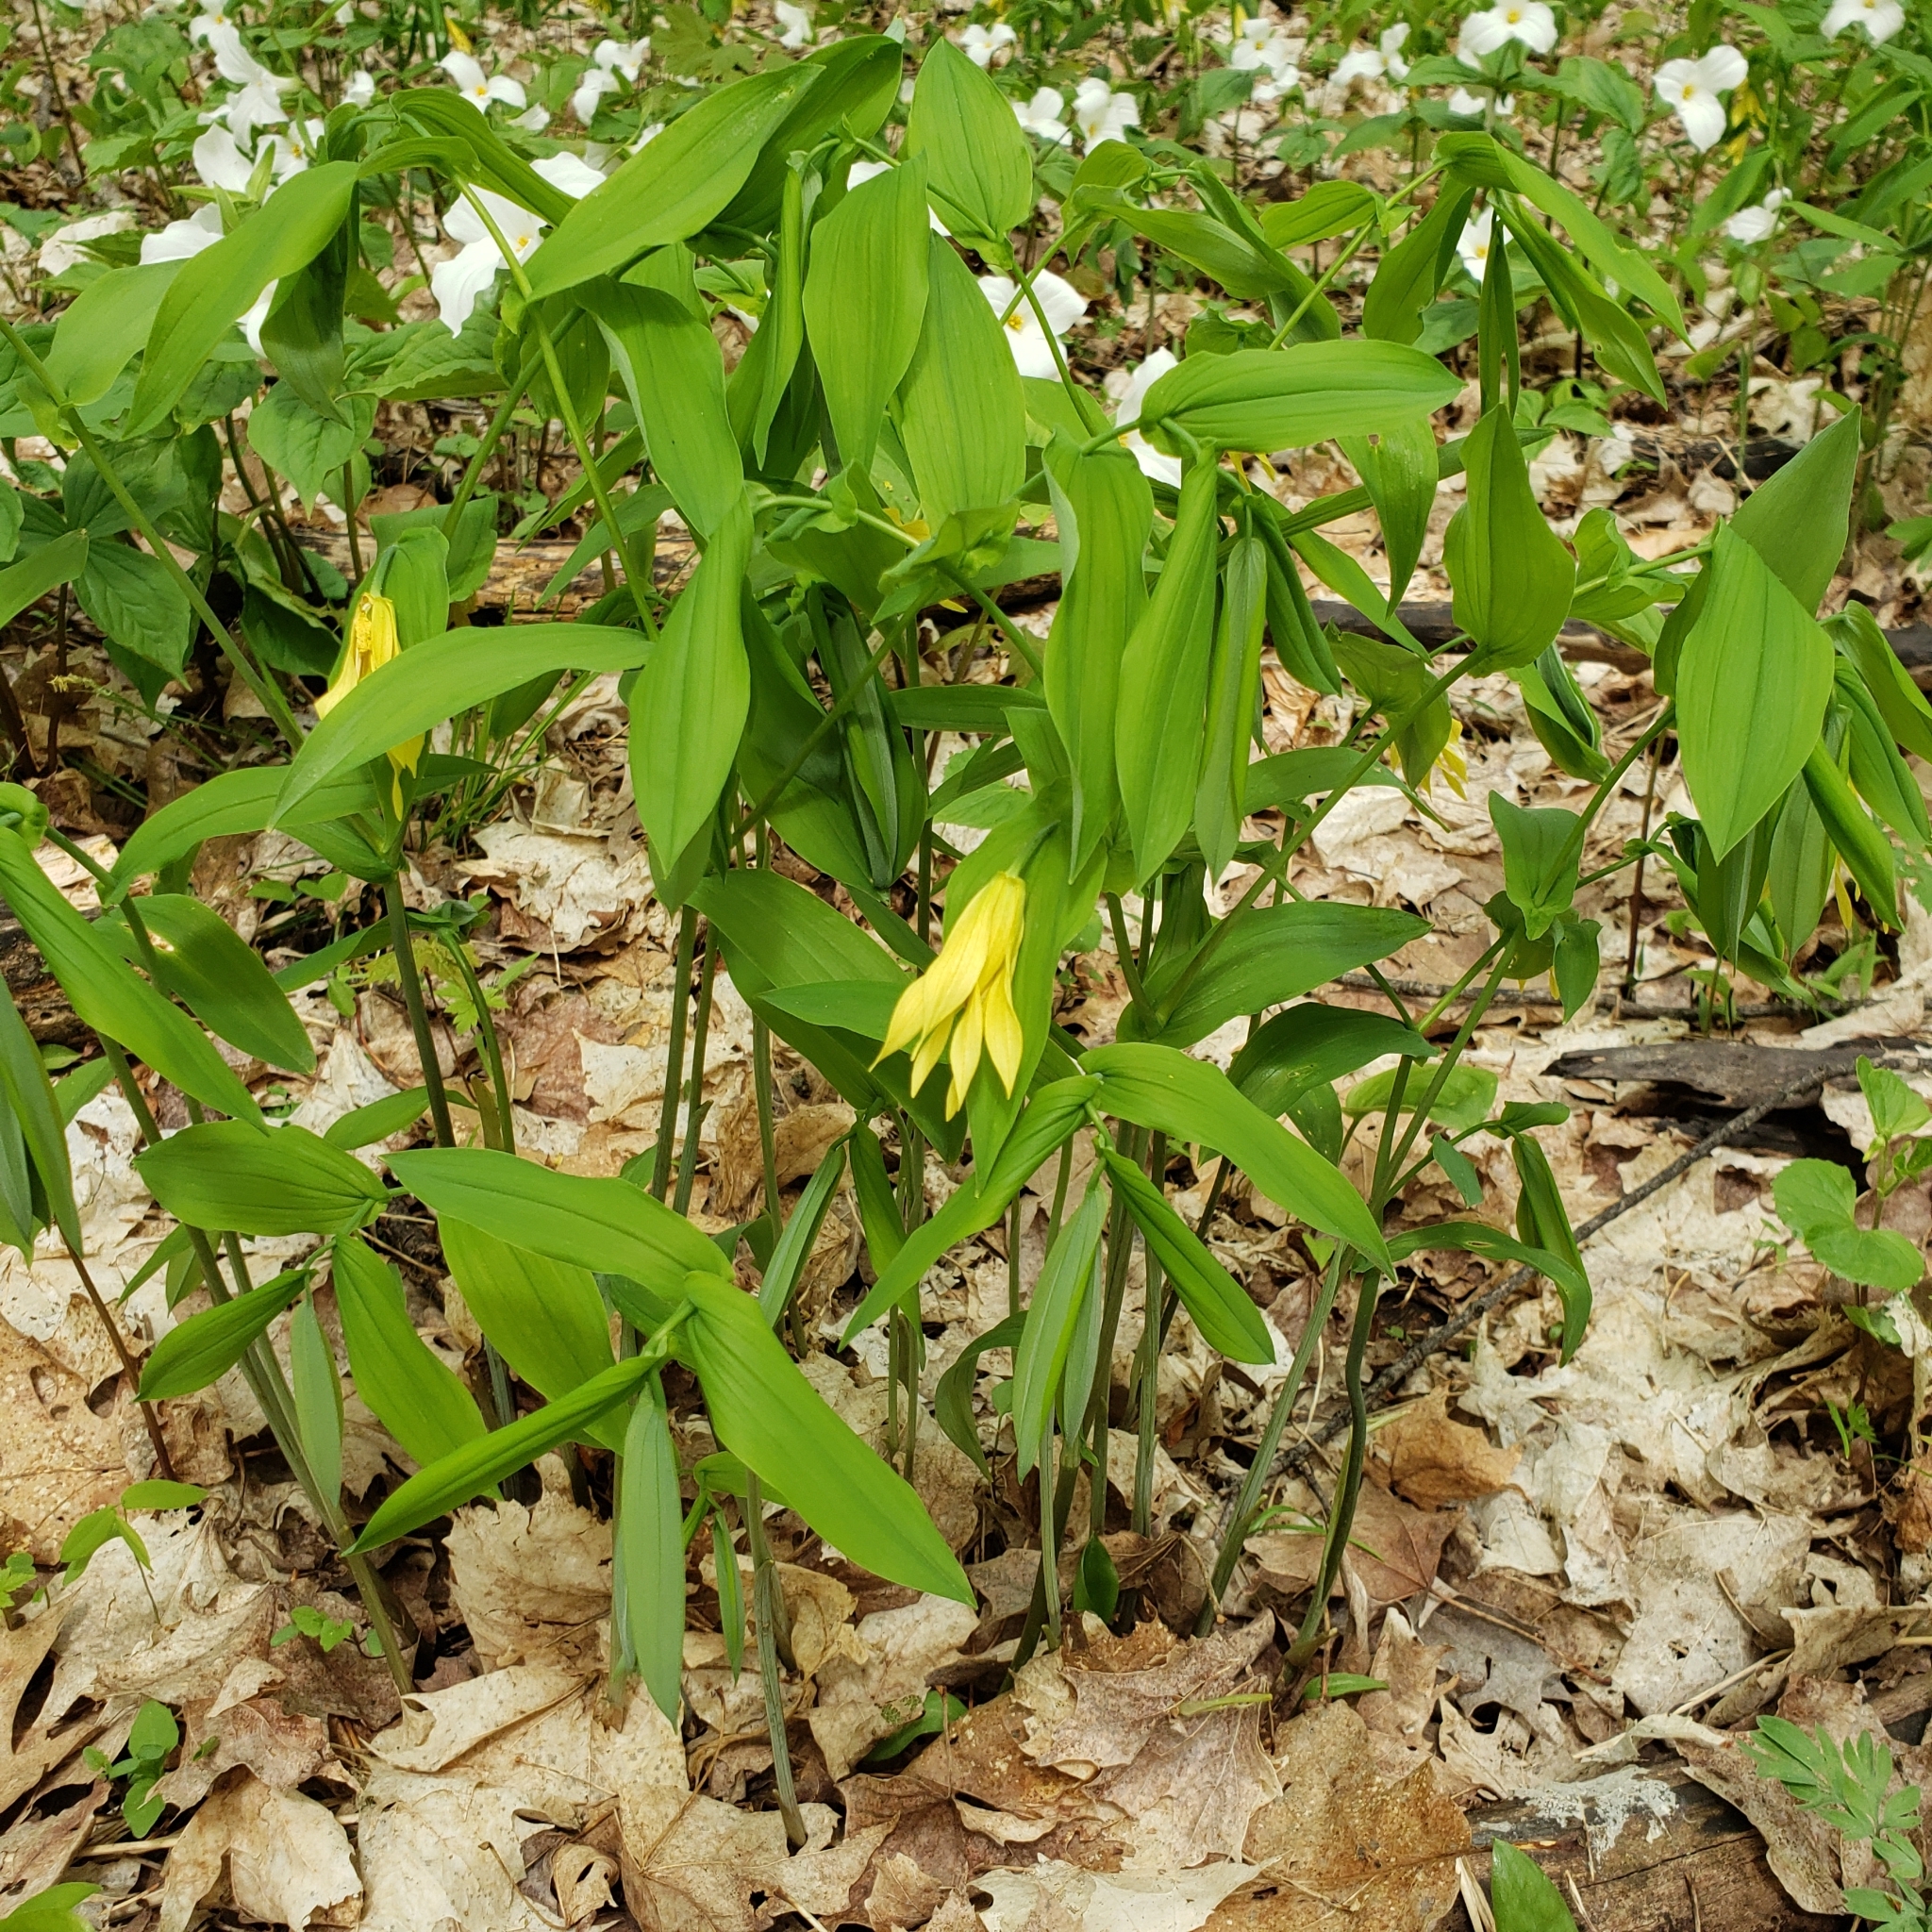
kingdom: Plantae
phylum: Tracheophyta
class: Liliopsida
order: Liliales
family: Colchicaceae
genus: Uvularia
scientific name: Uvularia grandiflora
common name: Bellwort
